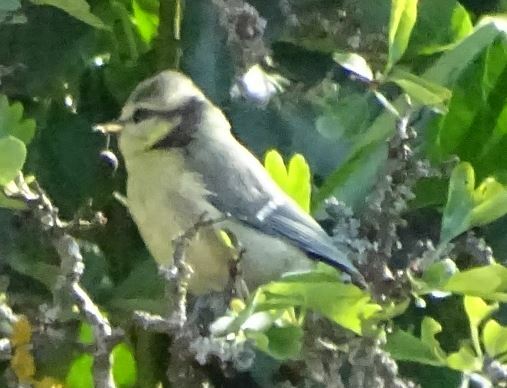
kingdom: Animalia
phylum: Chordata
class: Aves
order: Passeriformes
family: Paridae
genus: Cyanistes
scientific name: Cyanistes caeruleus
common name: Eurasian blue tit
